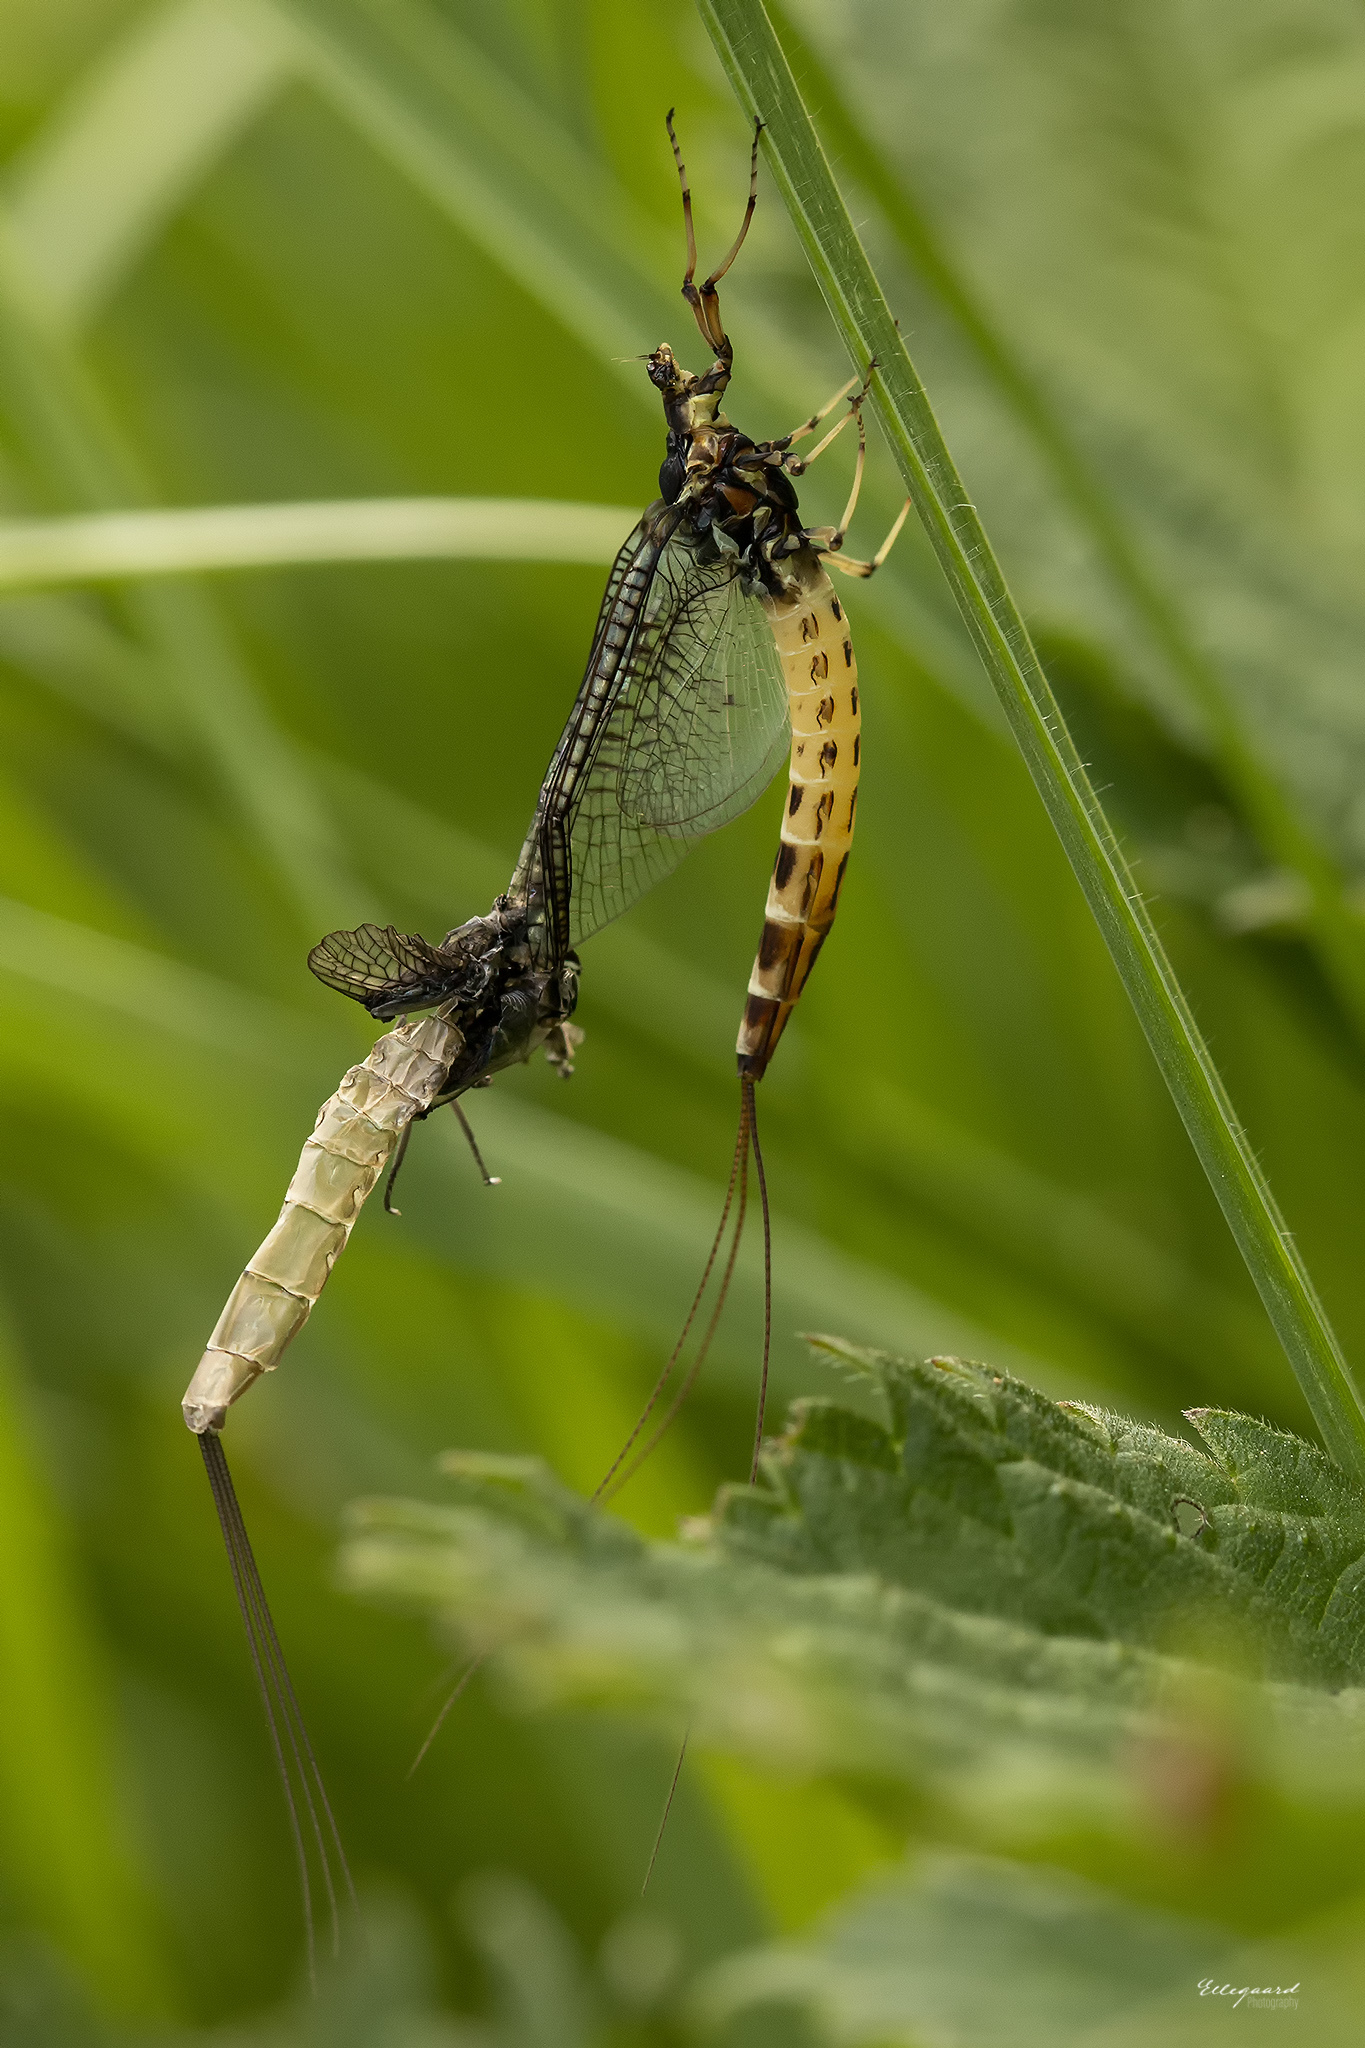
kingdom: Animalia
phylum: Arthropoda
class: Insecta
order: Ephemeroptera
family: Ephemeridae
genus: Ephemera
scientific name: Ephemera danica
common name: Green dun
